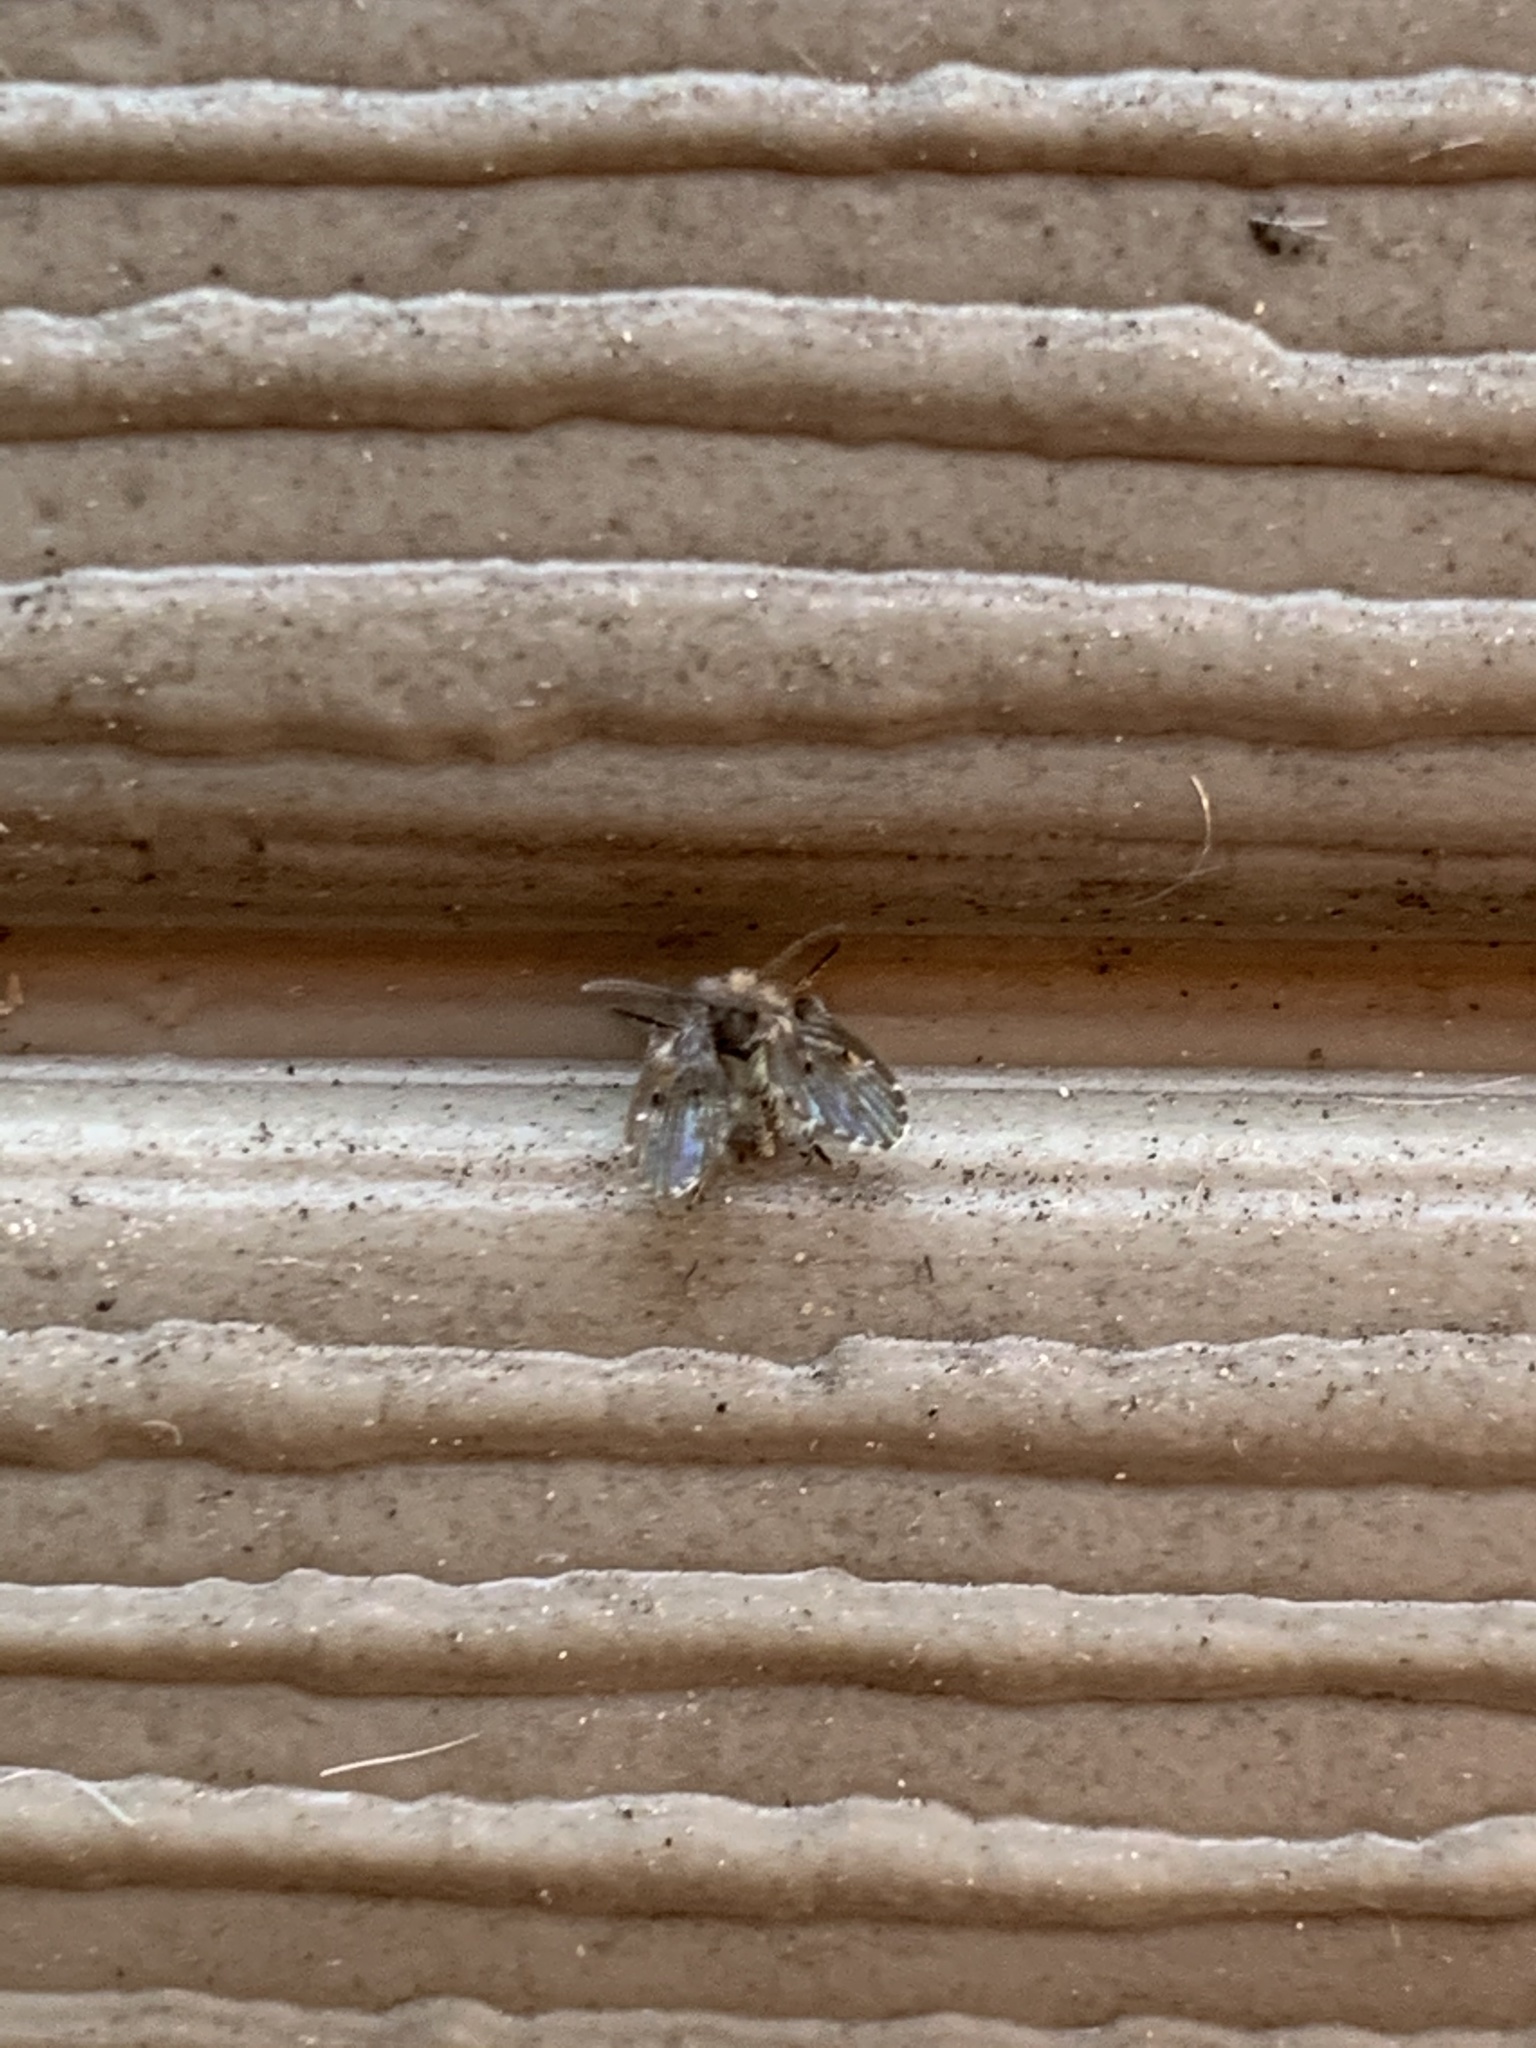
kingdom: Animalia
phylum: Arthropoda
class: Insecta
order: Diptera
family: Psychodidae
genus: Clogmia
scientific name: Clogmia albipunctatus
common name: White-spotted moth fly
